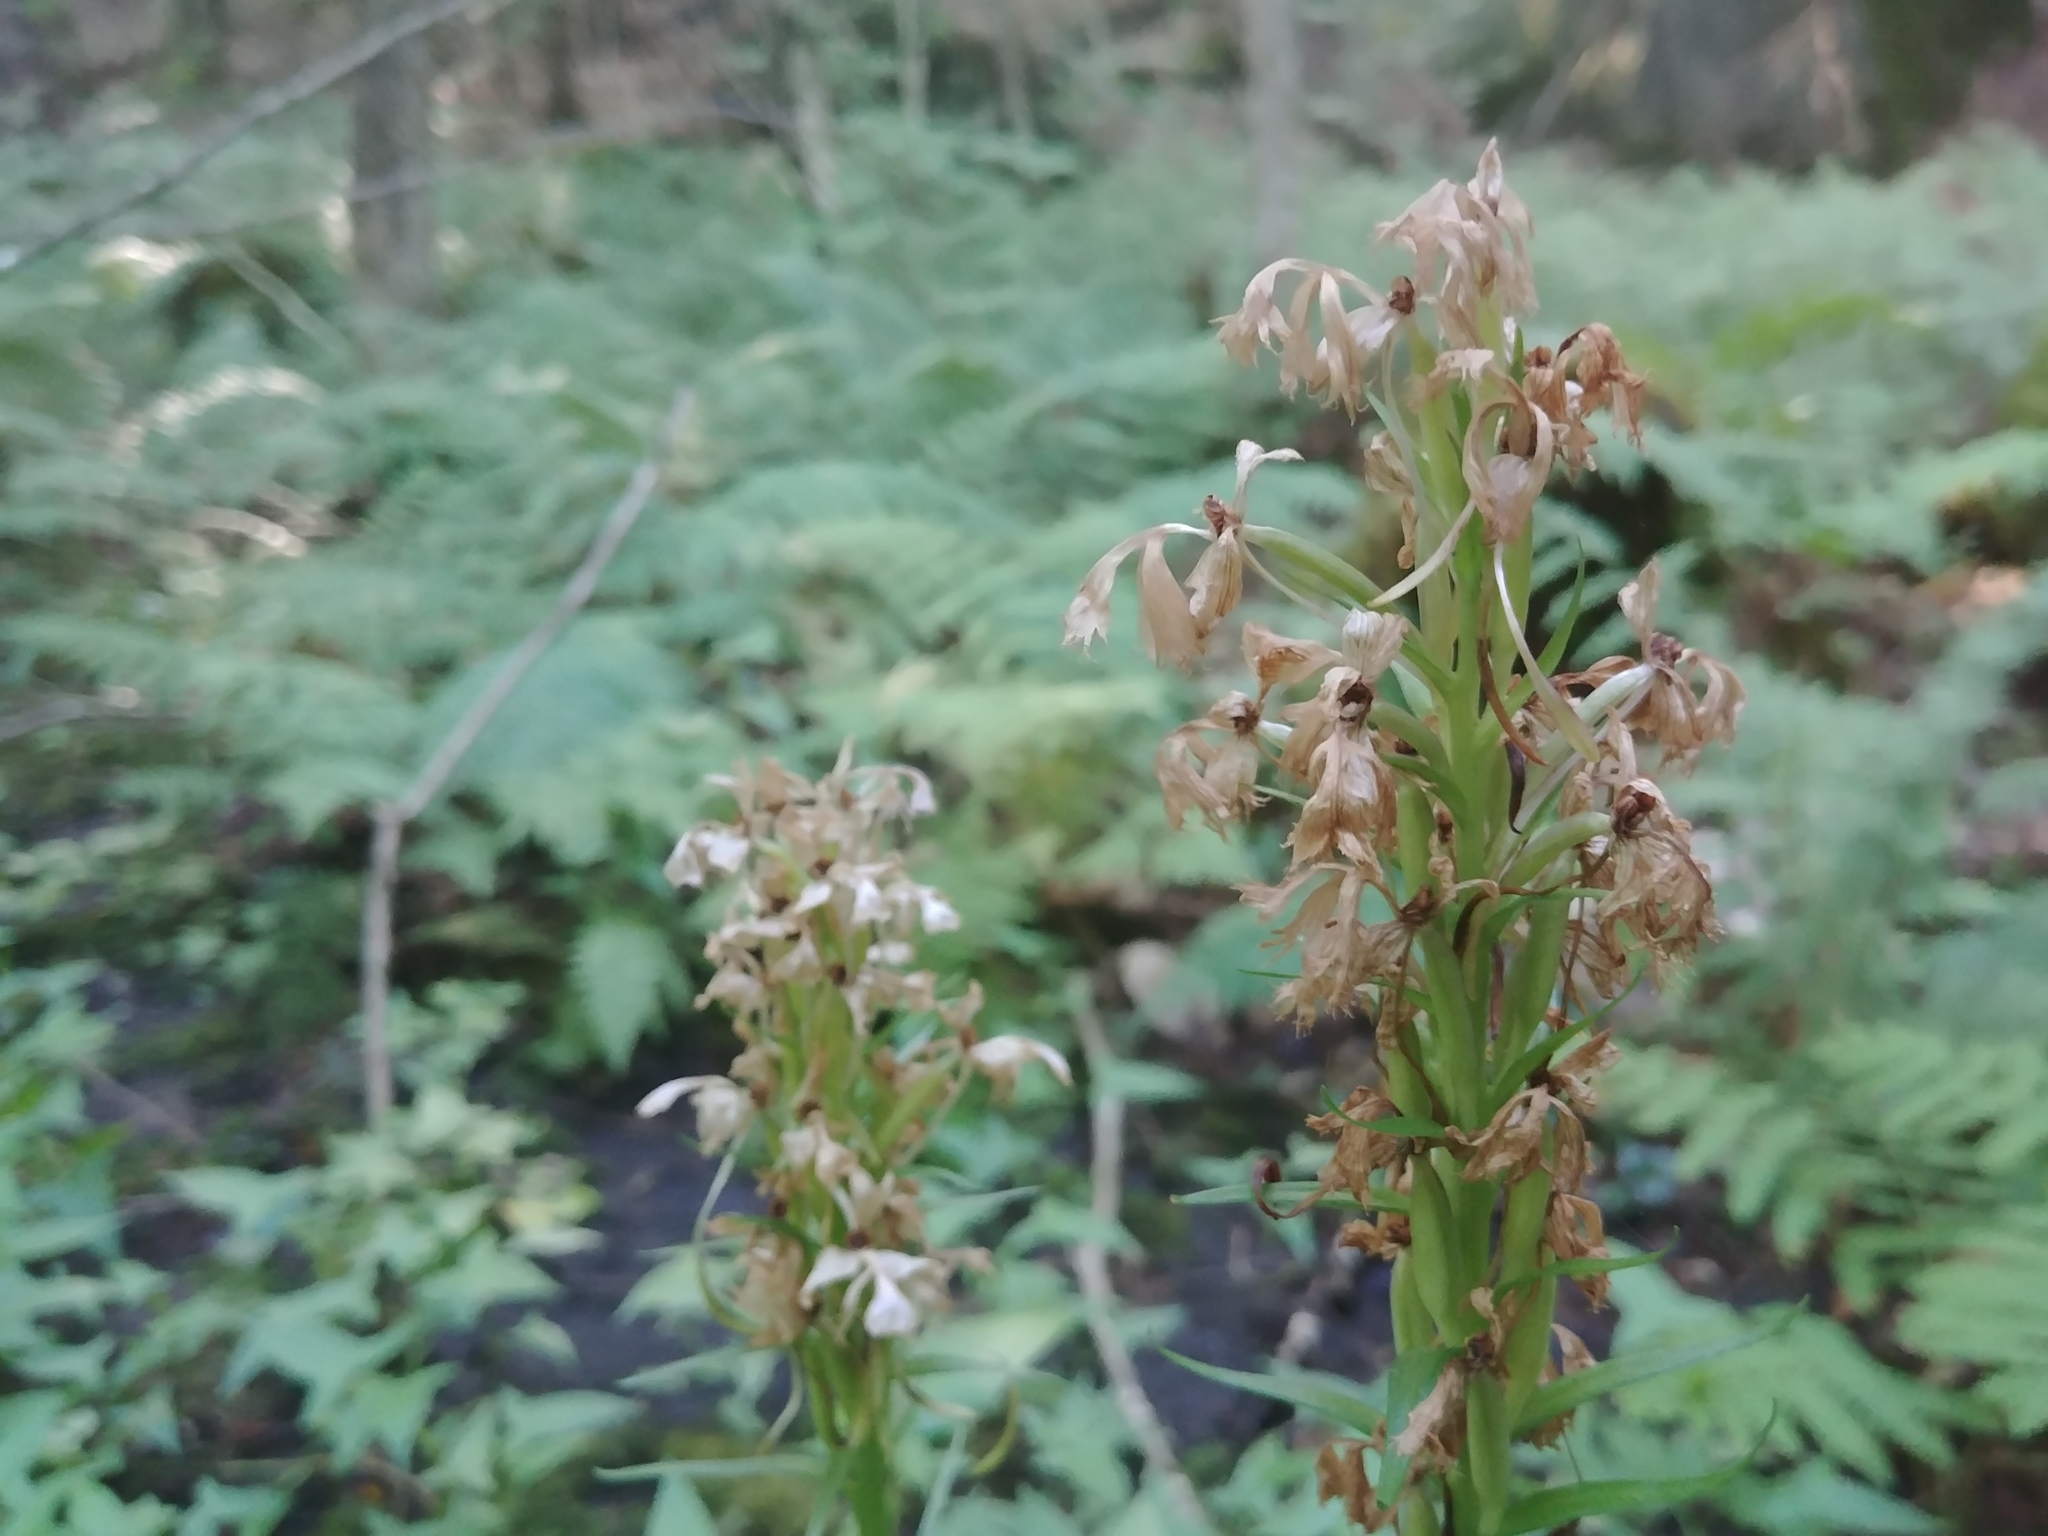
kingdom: Plantae
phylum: Tracheophyta
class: Liliopsida
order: Asparagales
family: Orchidaceae
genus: Platanthera
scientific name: Platanthera grandiflora
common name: Greater purple fringed orchid
